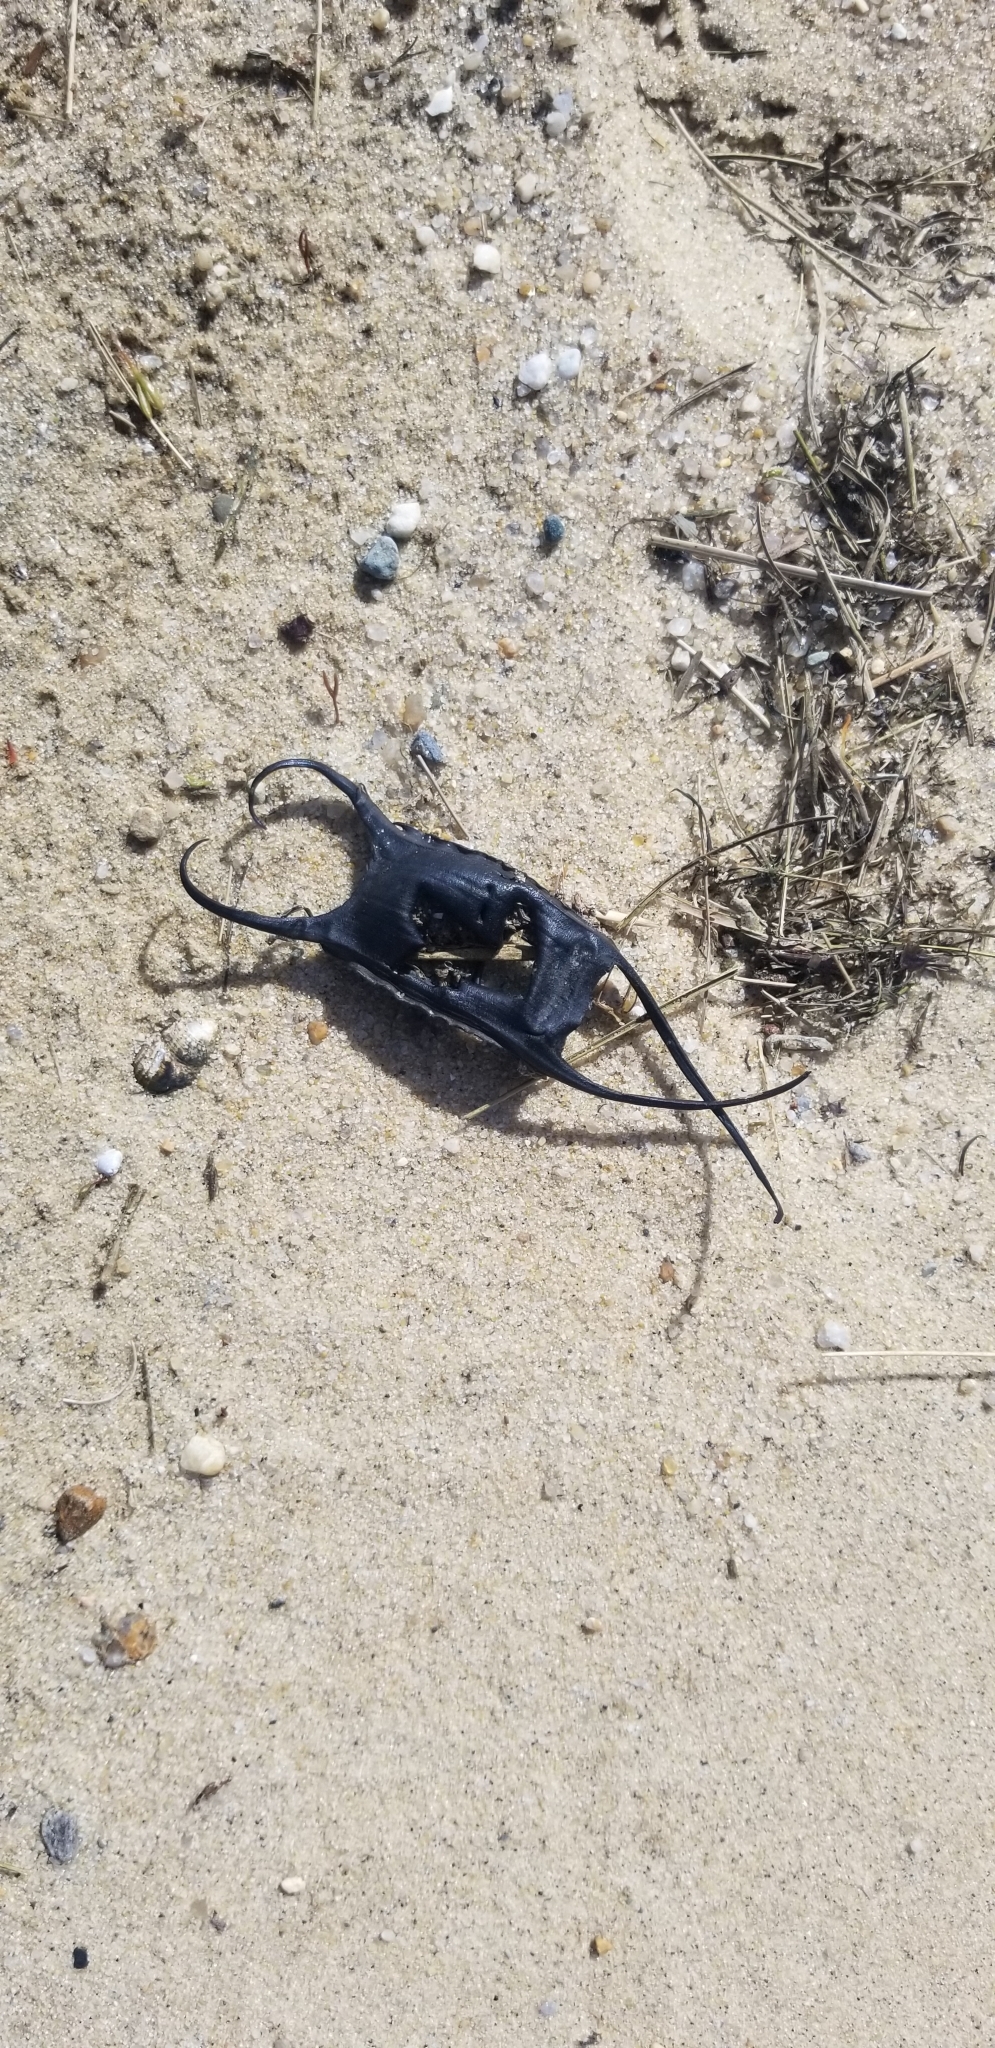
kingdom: Animalia
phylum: Chordata
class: Elasmobranchii
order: Rajiformes
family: Rajidae
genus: Leucoraja
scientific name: Leucoraja erinacea
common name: Little skate
